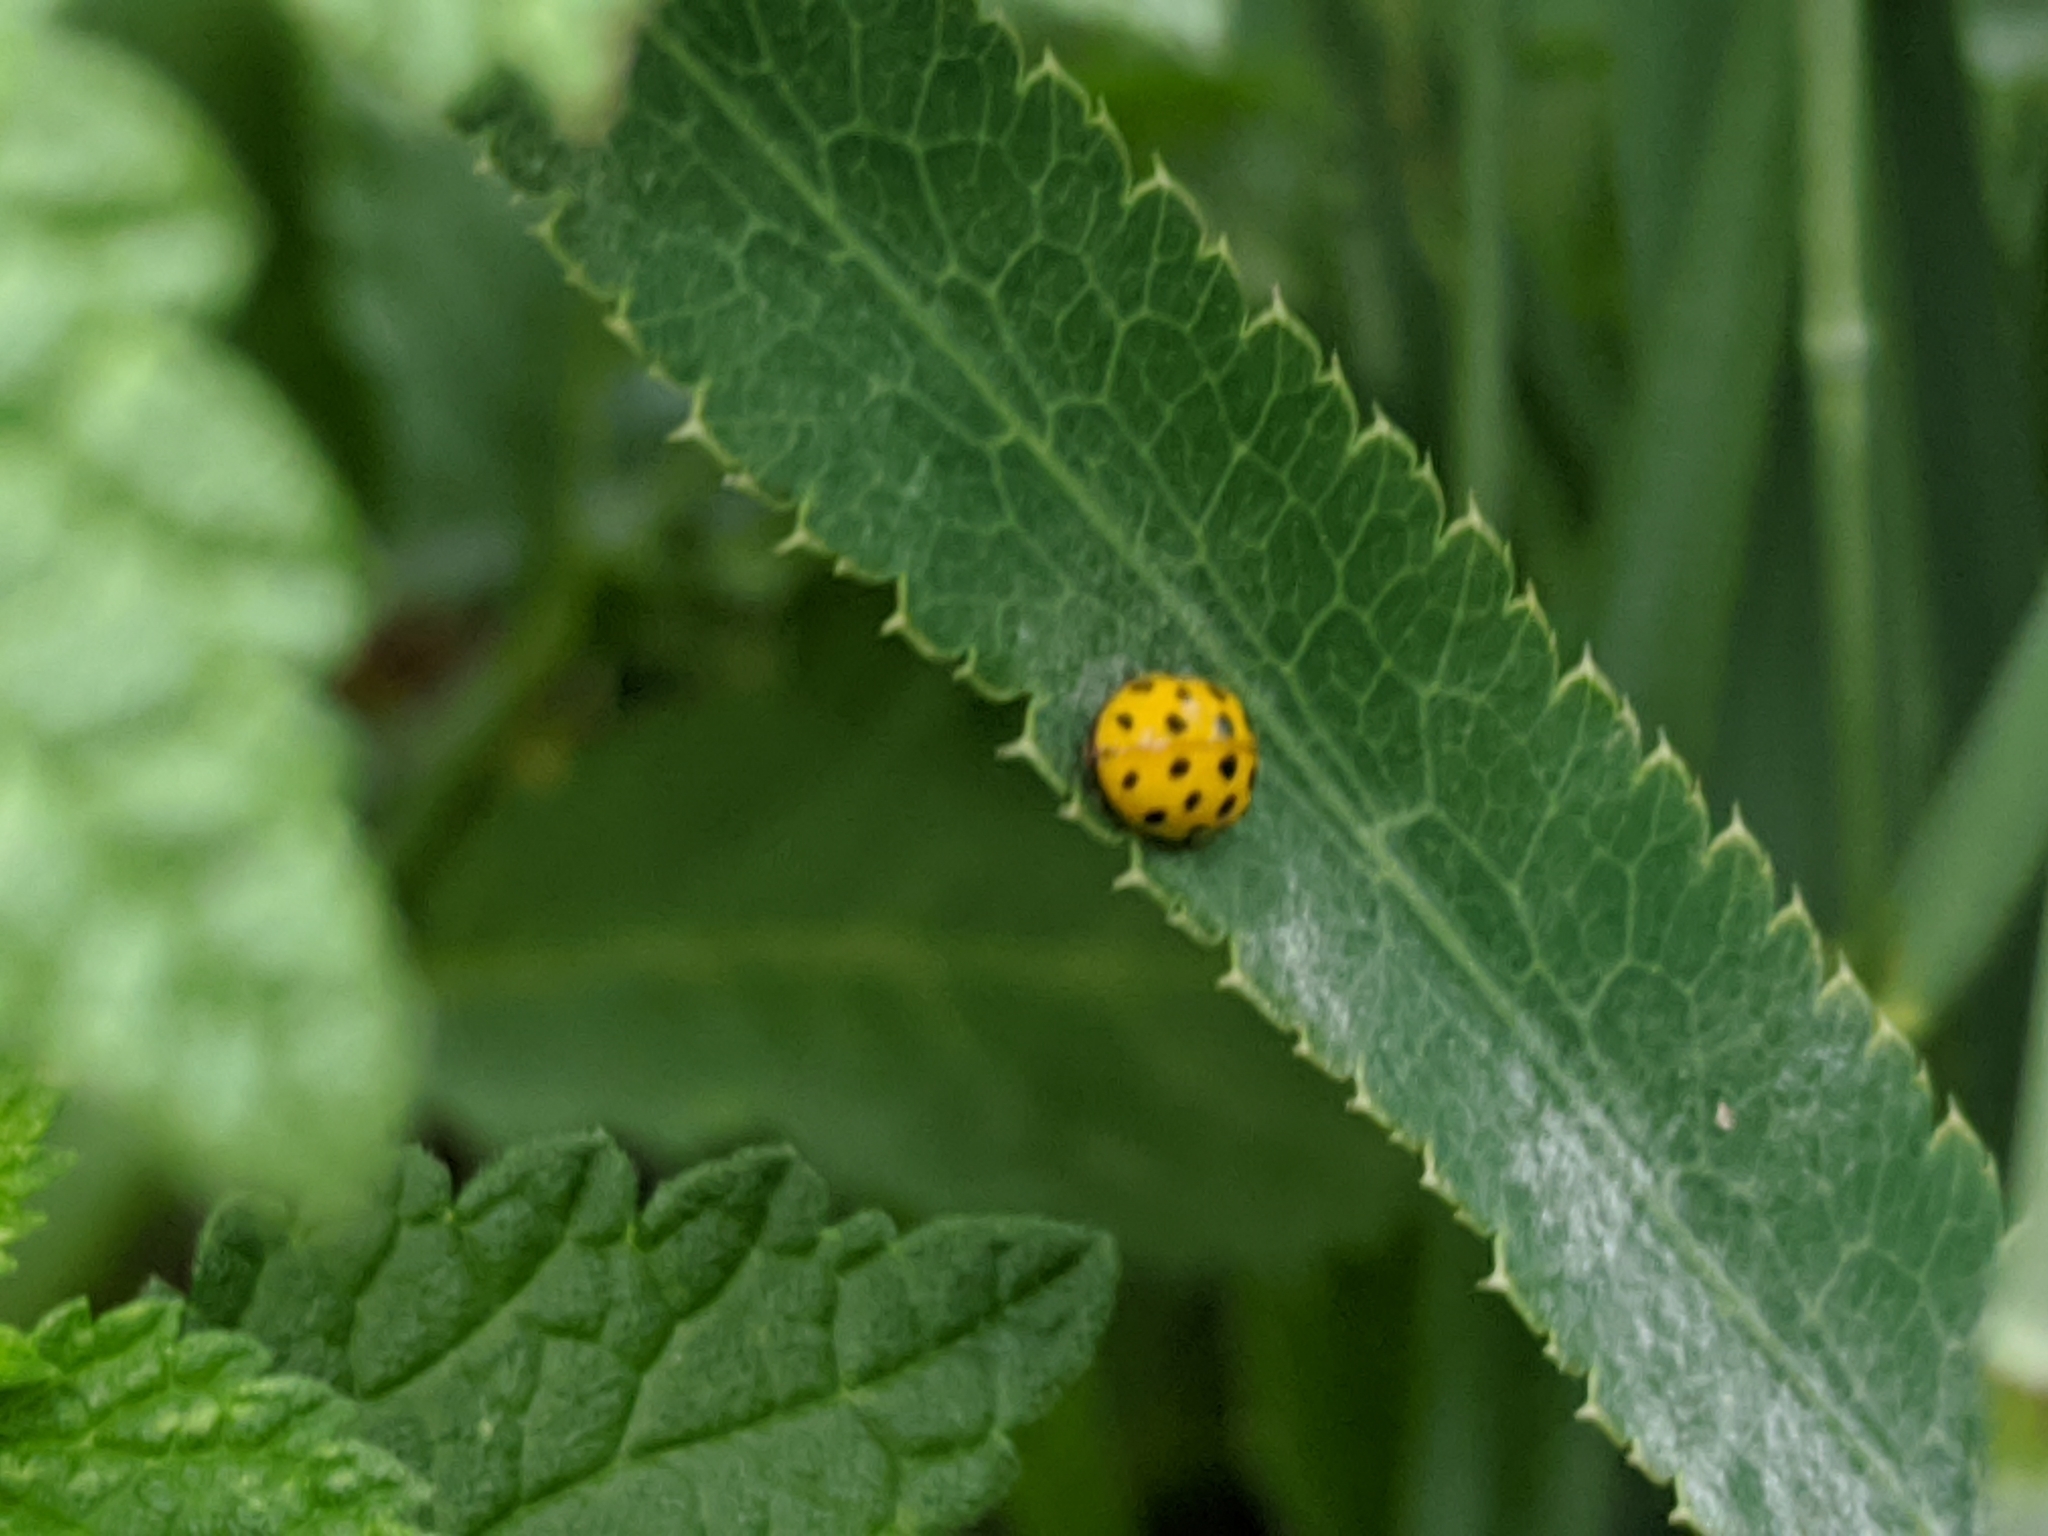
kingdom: Animalia
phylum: Arthropoda
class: Insecta
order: Coleoptera
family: Coccinellidae
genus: Psyllobora
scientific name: Psyllobora vigintiduopunctata
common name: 22-spot ladybird
